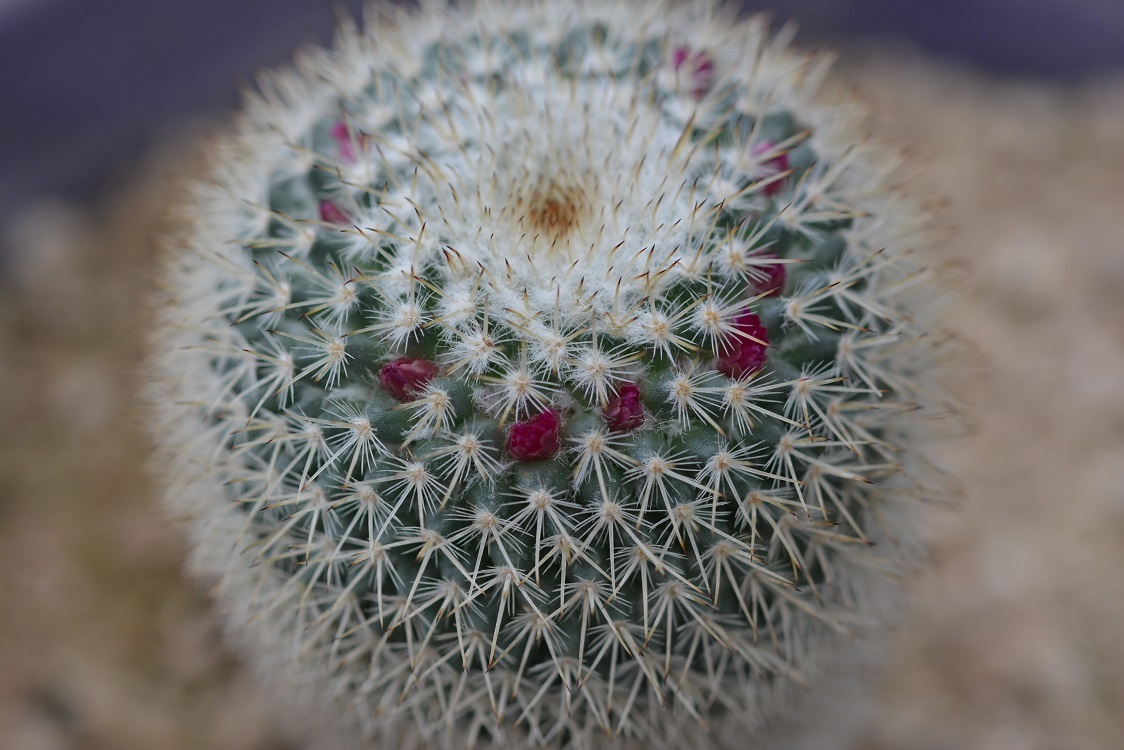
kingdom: Plantae
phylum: Tracheophyta
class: Magnoliopsida
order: Caryophyllales
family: Cactaceae
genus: Mammillaria
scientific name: Mammillaria albilanata
